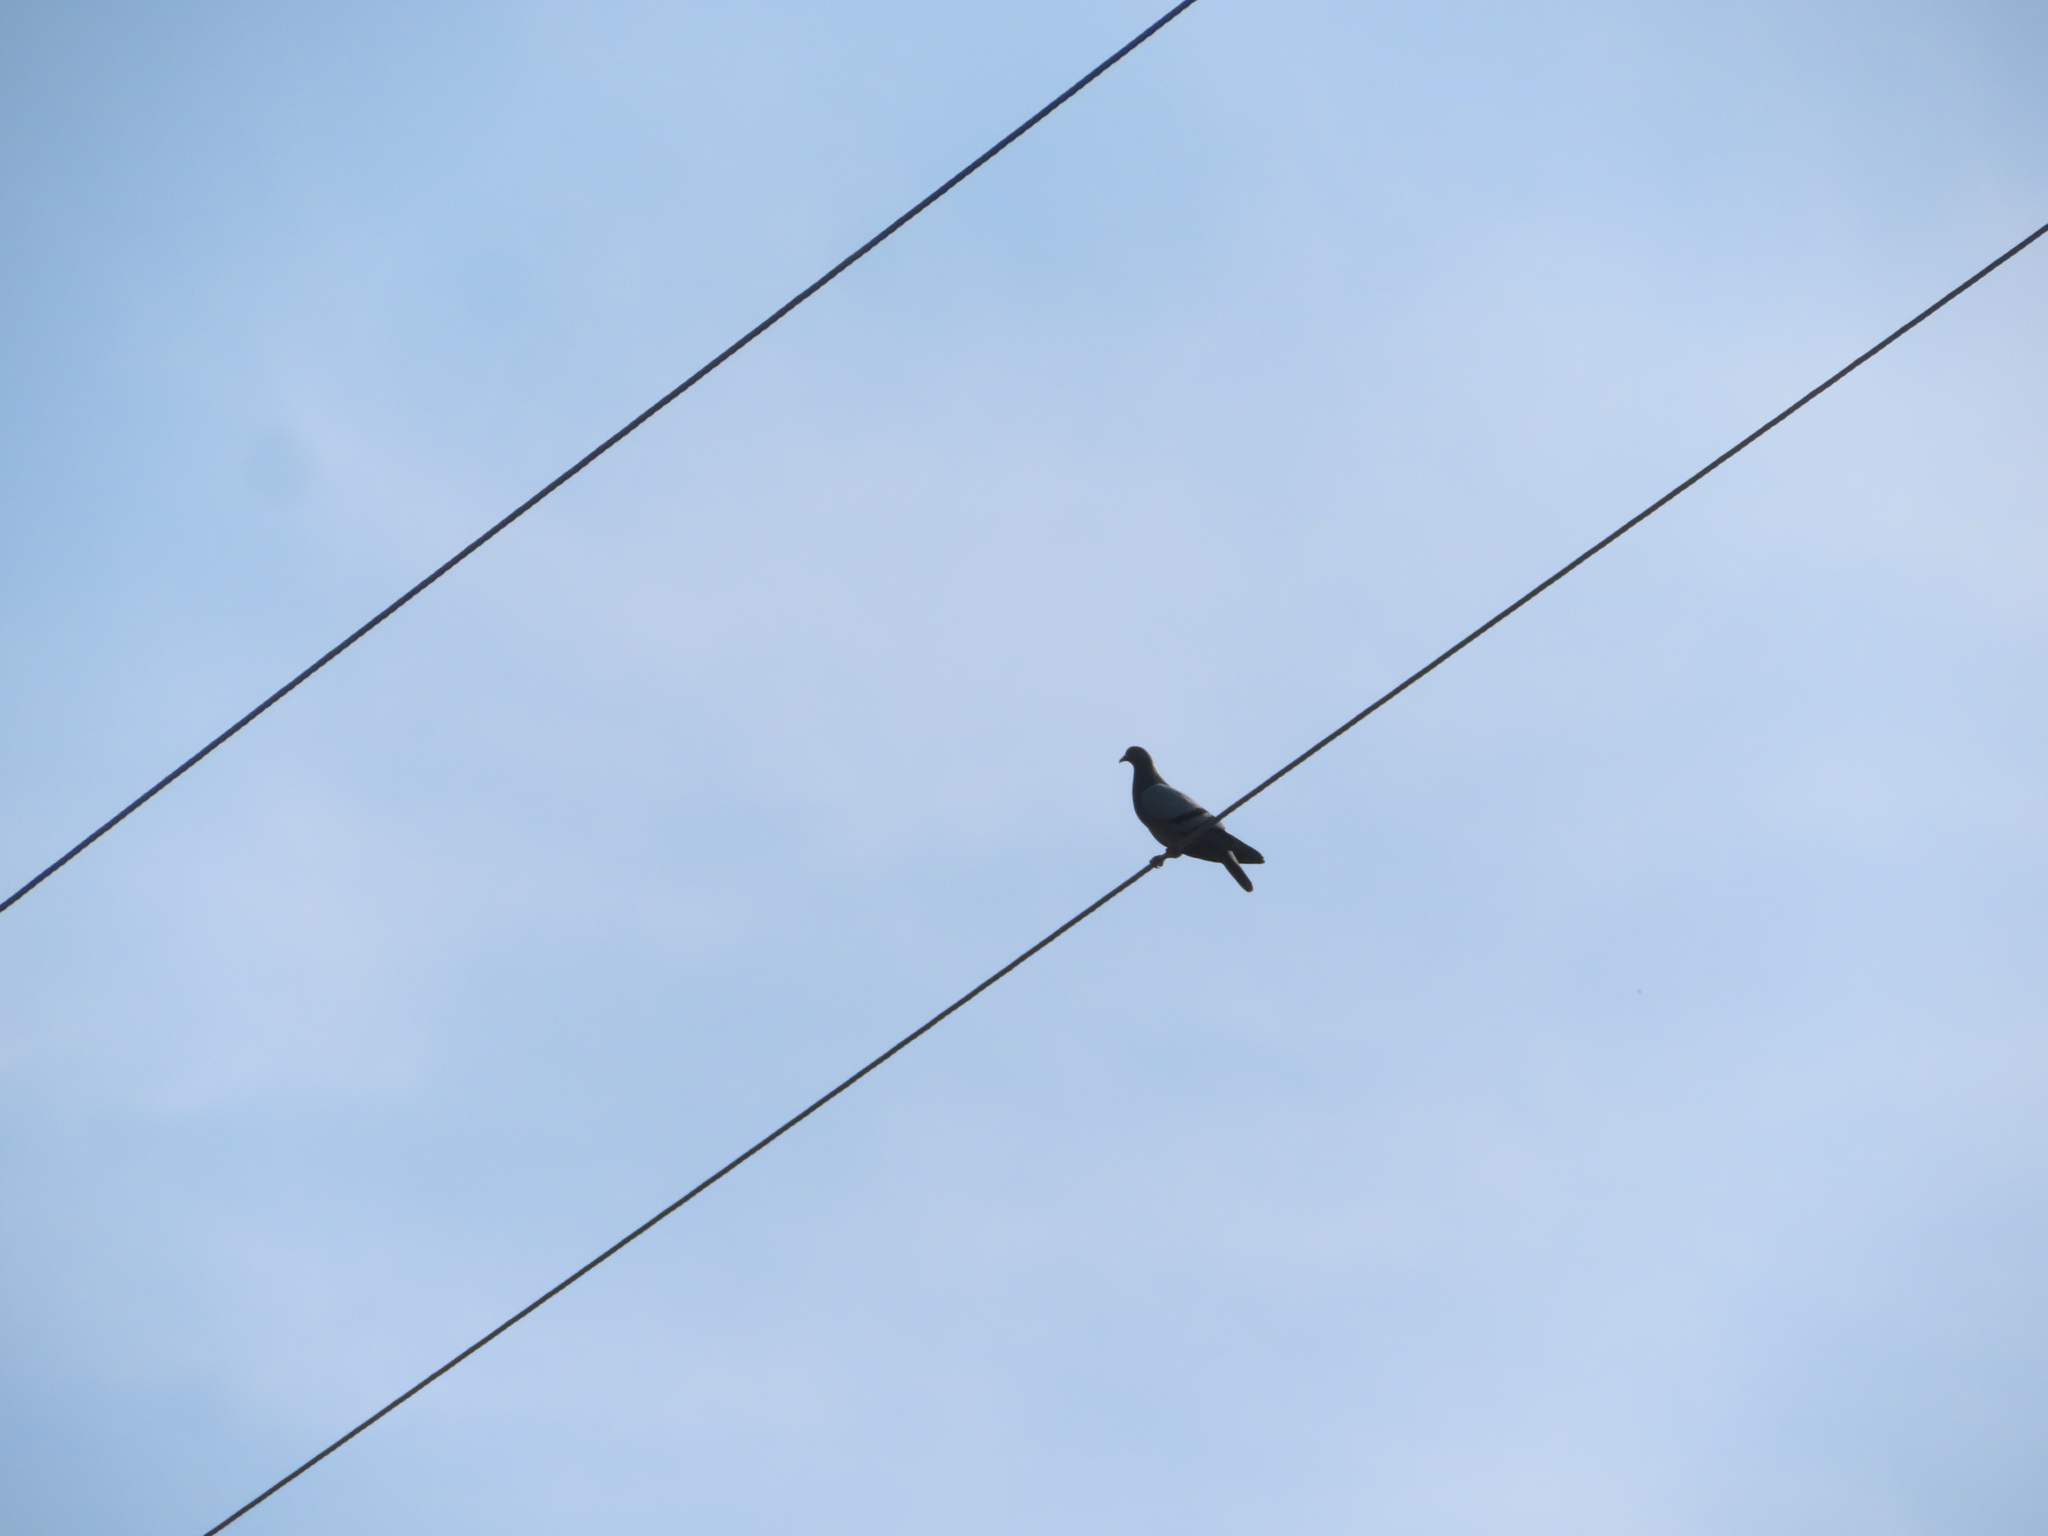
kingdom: Animalia
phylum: Chordata
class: Aves
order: Columbiformes
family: Columbidae
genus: Columba
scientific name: Columba livia
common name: Rock pigeon
